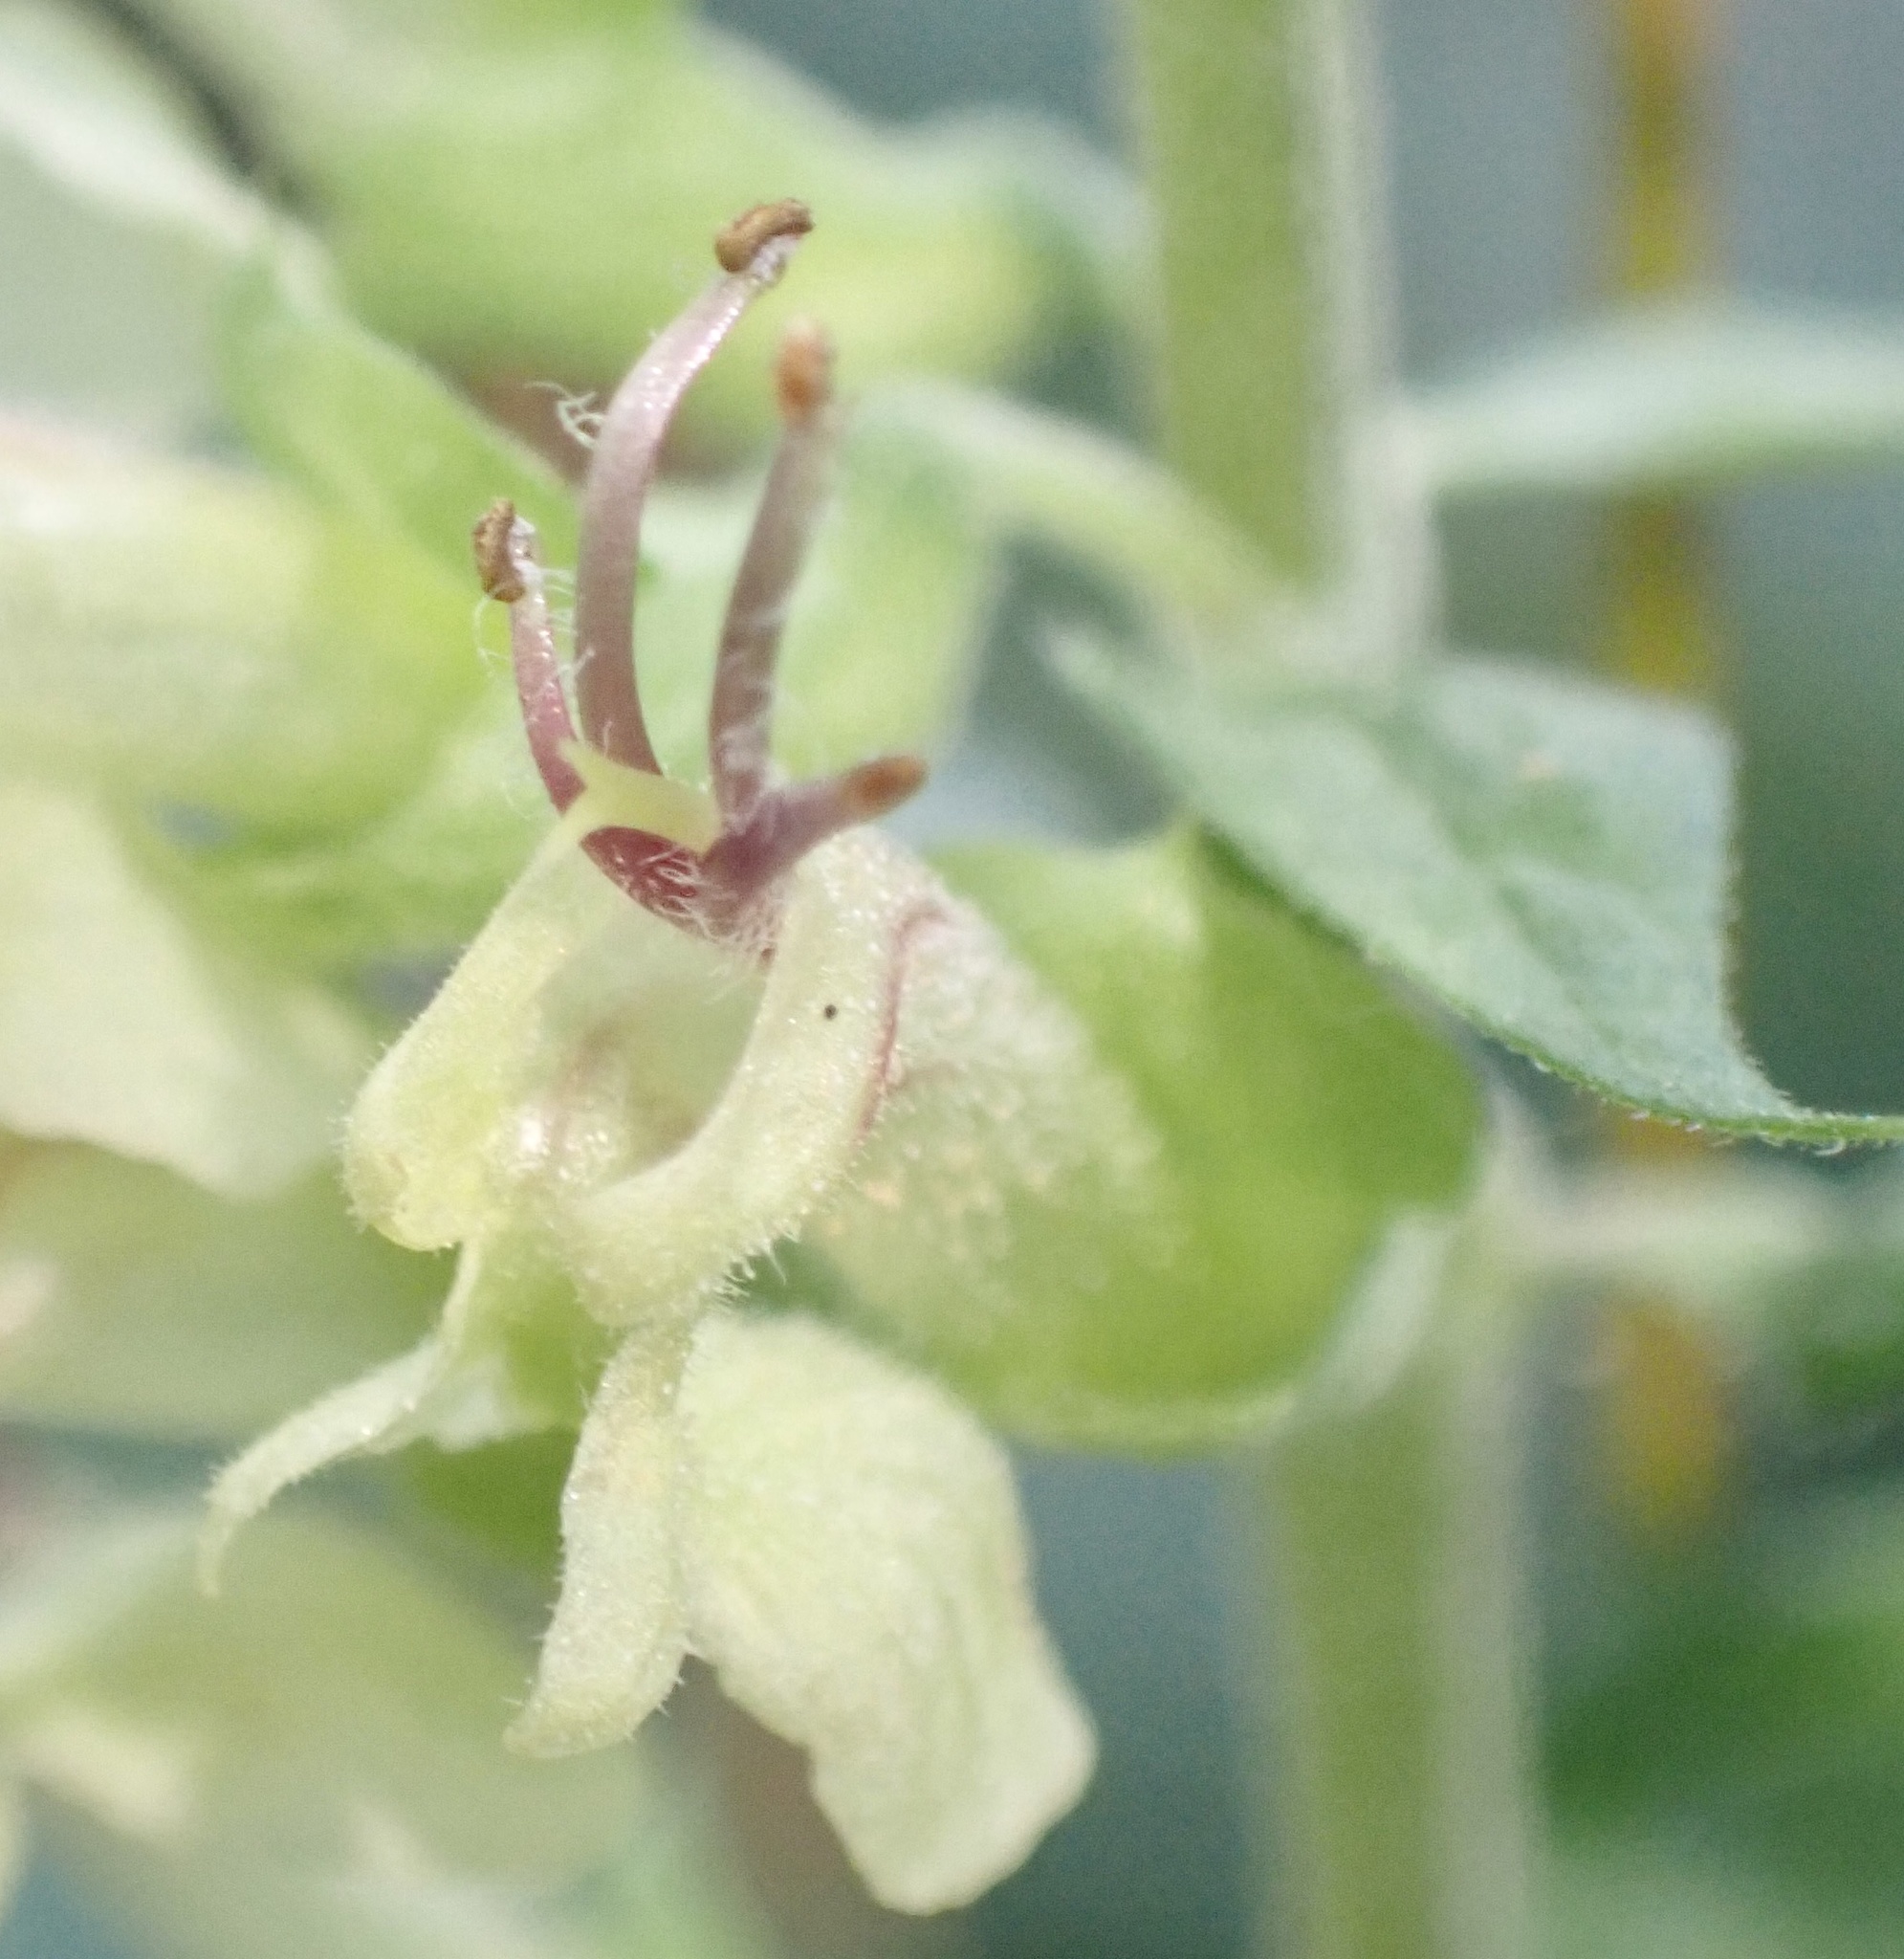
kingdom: Plantae
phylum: Tracheophyta
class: Magnoliopsida
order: Lamiales
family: Lamiaceae
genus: Teucrium
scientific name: Teucrium scorodonia
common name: Woodland germander
